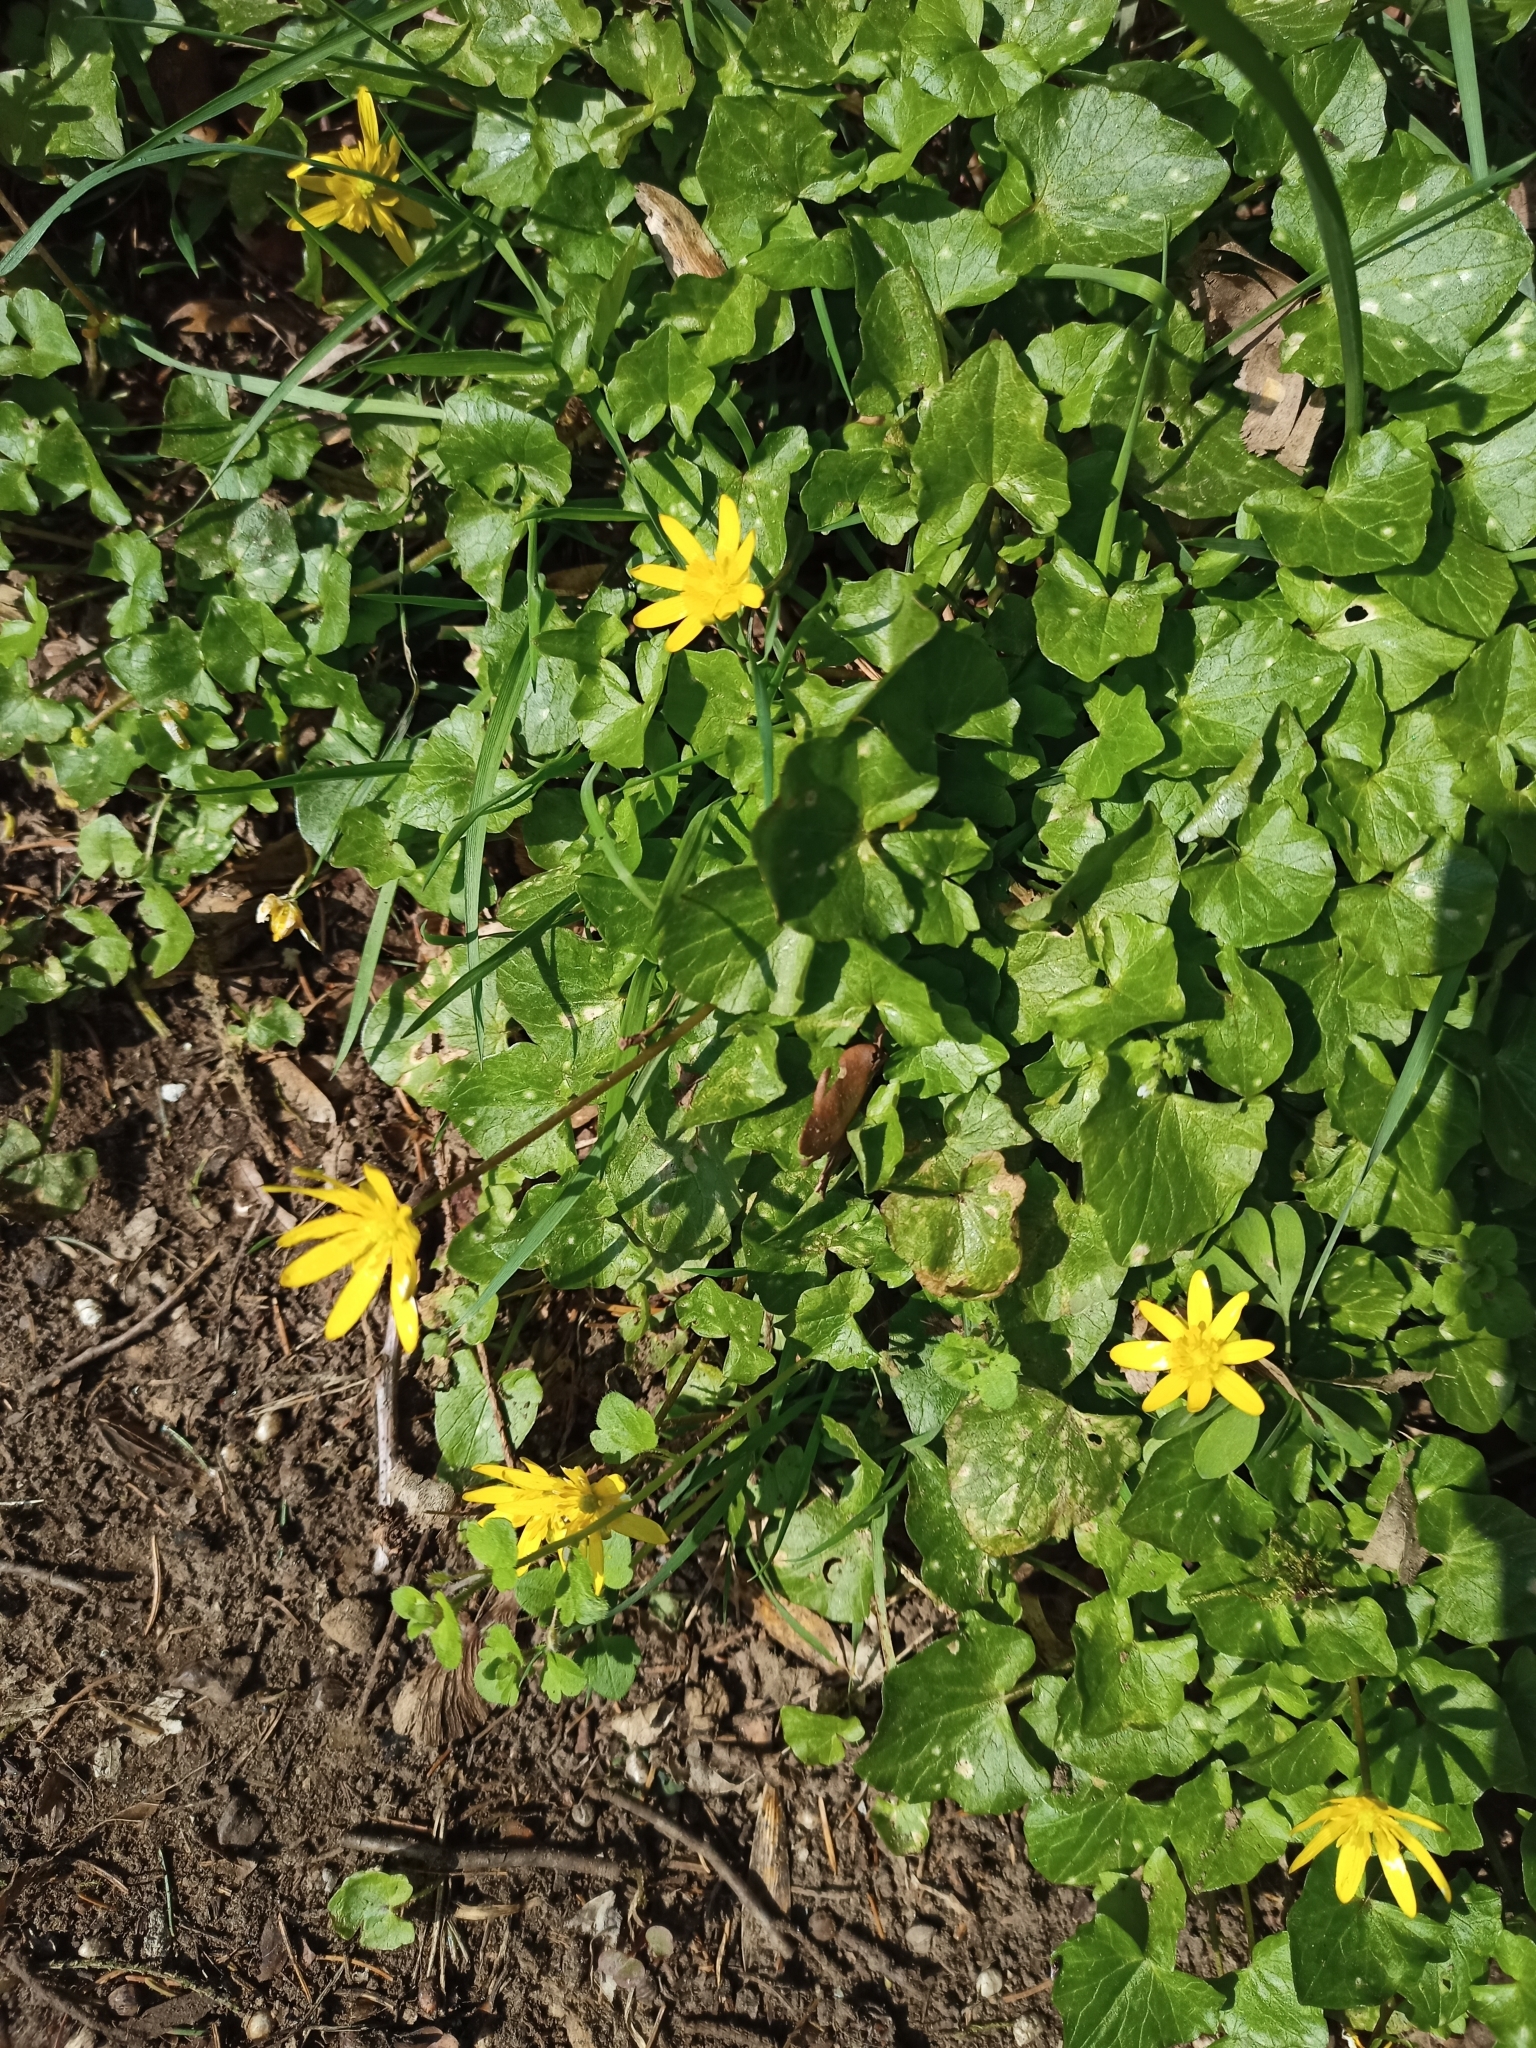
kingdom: Plantae
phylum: Tracheophyta
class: Magnoliopsida
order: Ranunculales
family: Ranunculaceae
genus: Ficaria
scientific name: Ficaria verna
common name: Lesser celandine
